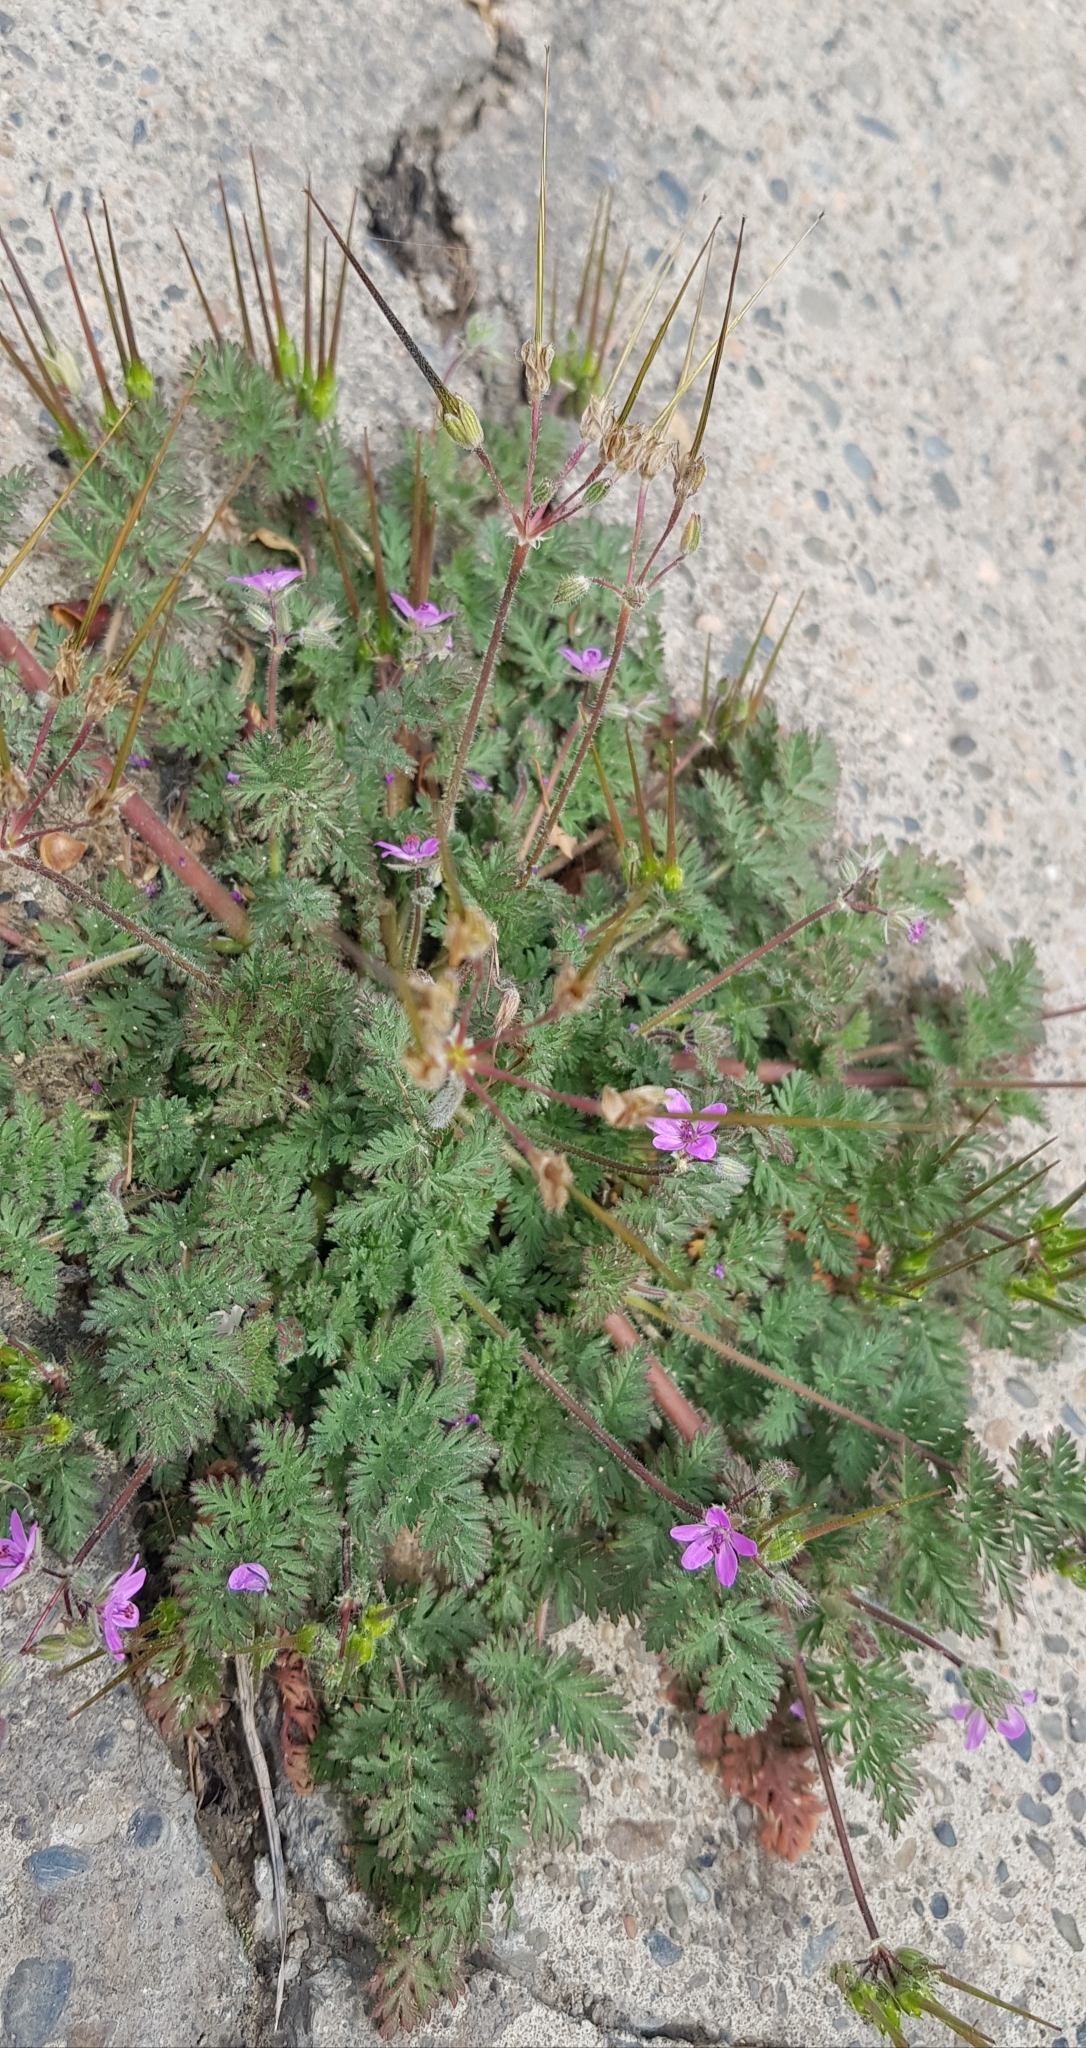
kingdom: Plantae
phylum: Tracheophyta
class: Magnoliopsida
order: Geraniales
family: Geraniaceae
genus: Erodium
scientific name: Erodium cicutarium
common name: Common stork's-bill
